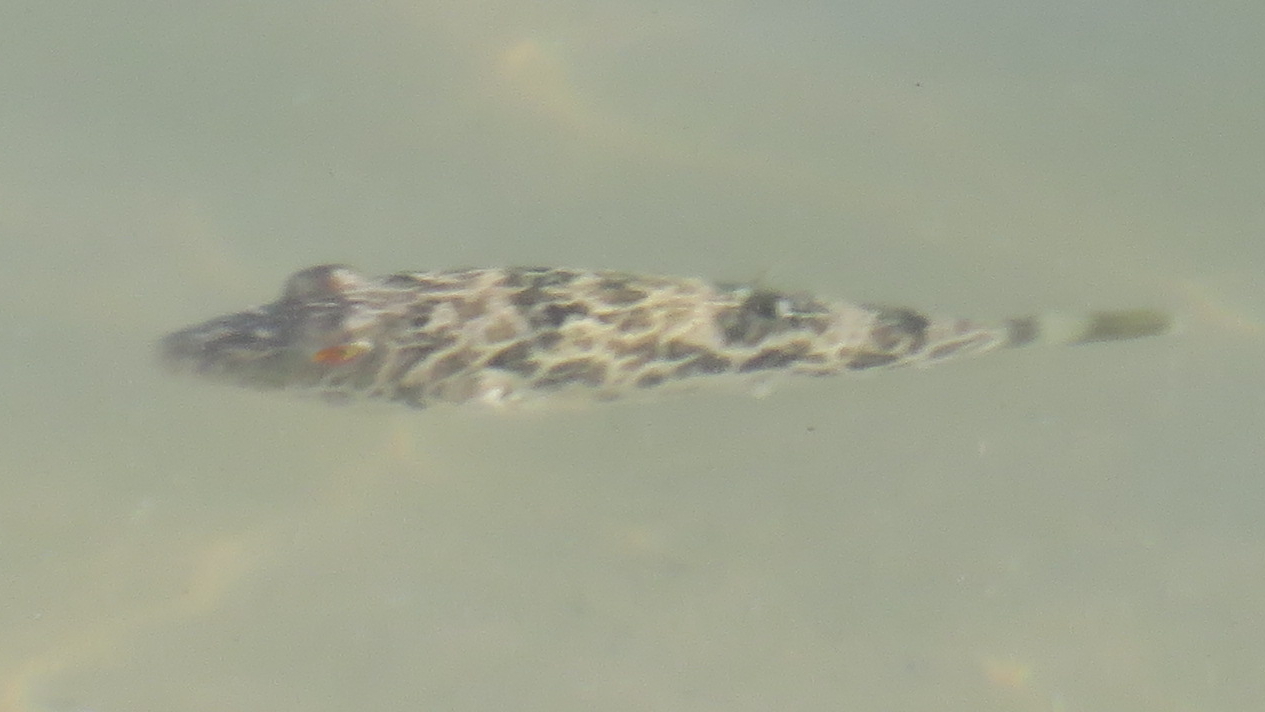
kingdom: Animalia
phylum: Chordata
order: Tetraodontiformes
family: Tetraodontidae
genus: Sphoeroides
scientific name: Sphoeroides greeleyi
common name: Green puffer
